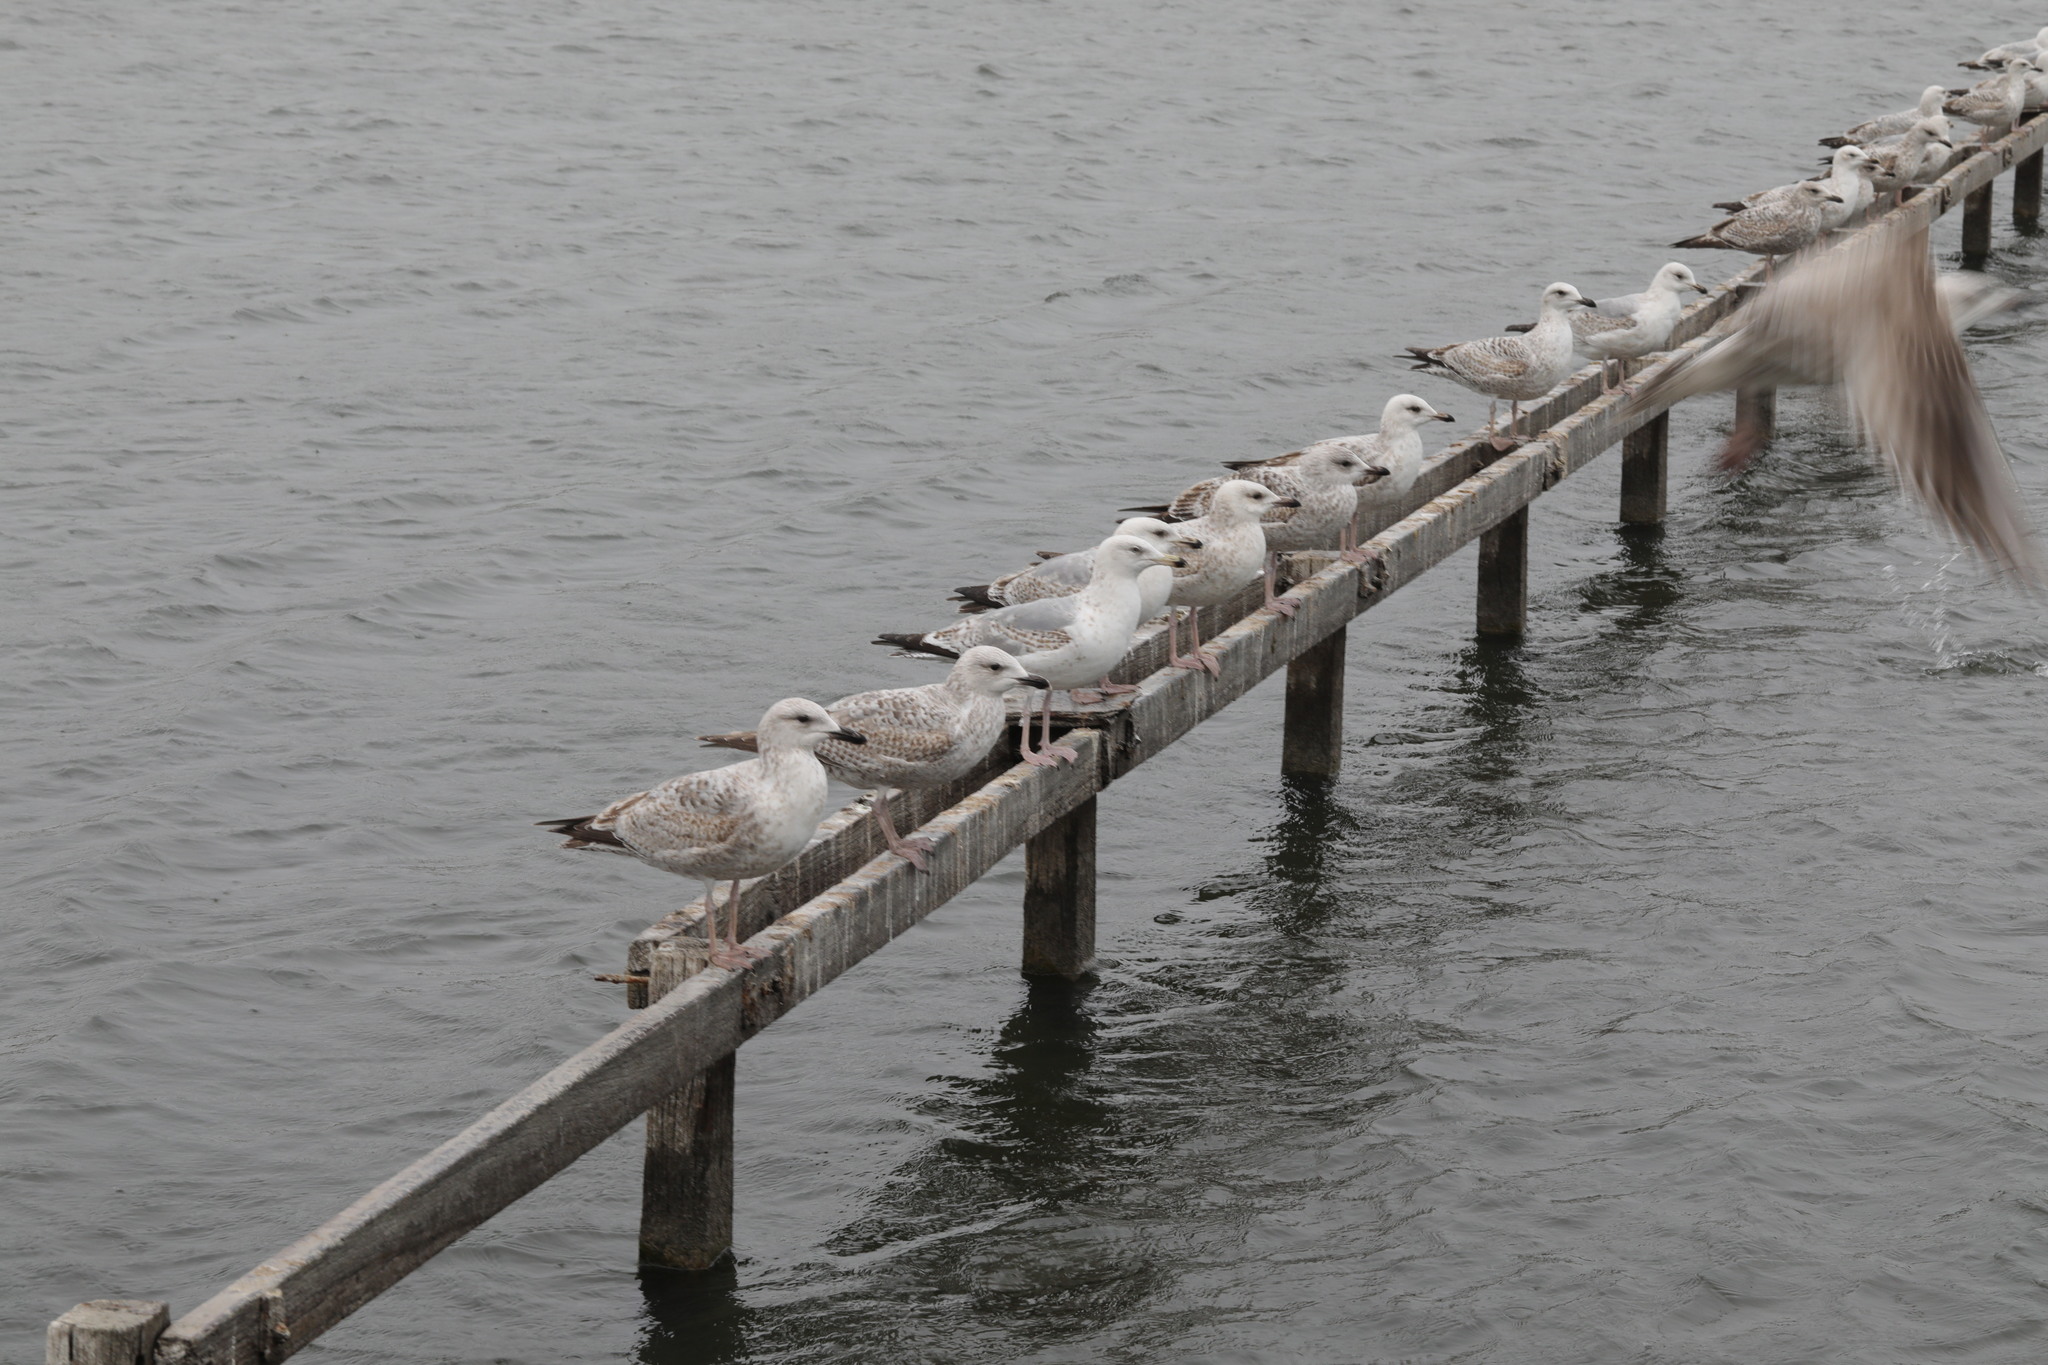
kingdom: Animalia
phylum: Chordata
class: Aves
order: Charadriiformes
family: Laridae
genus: Larus
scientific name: Larus argentatus
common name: Herring gull
